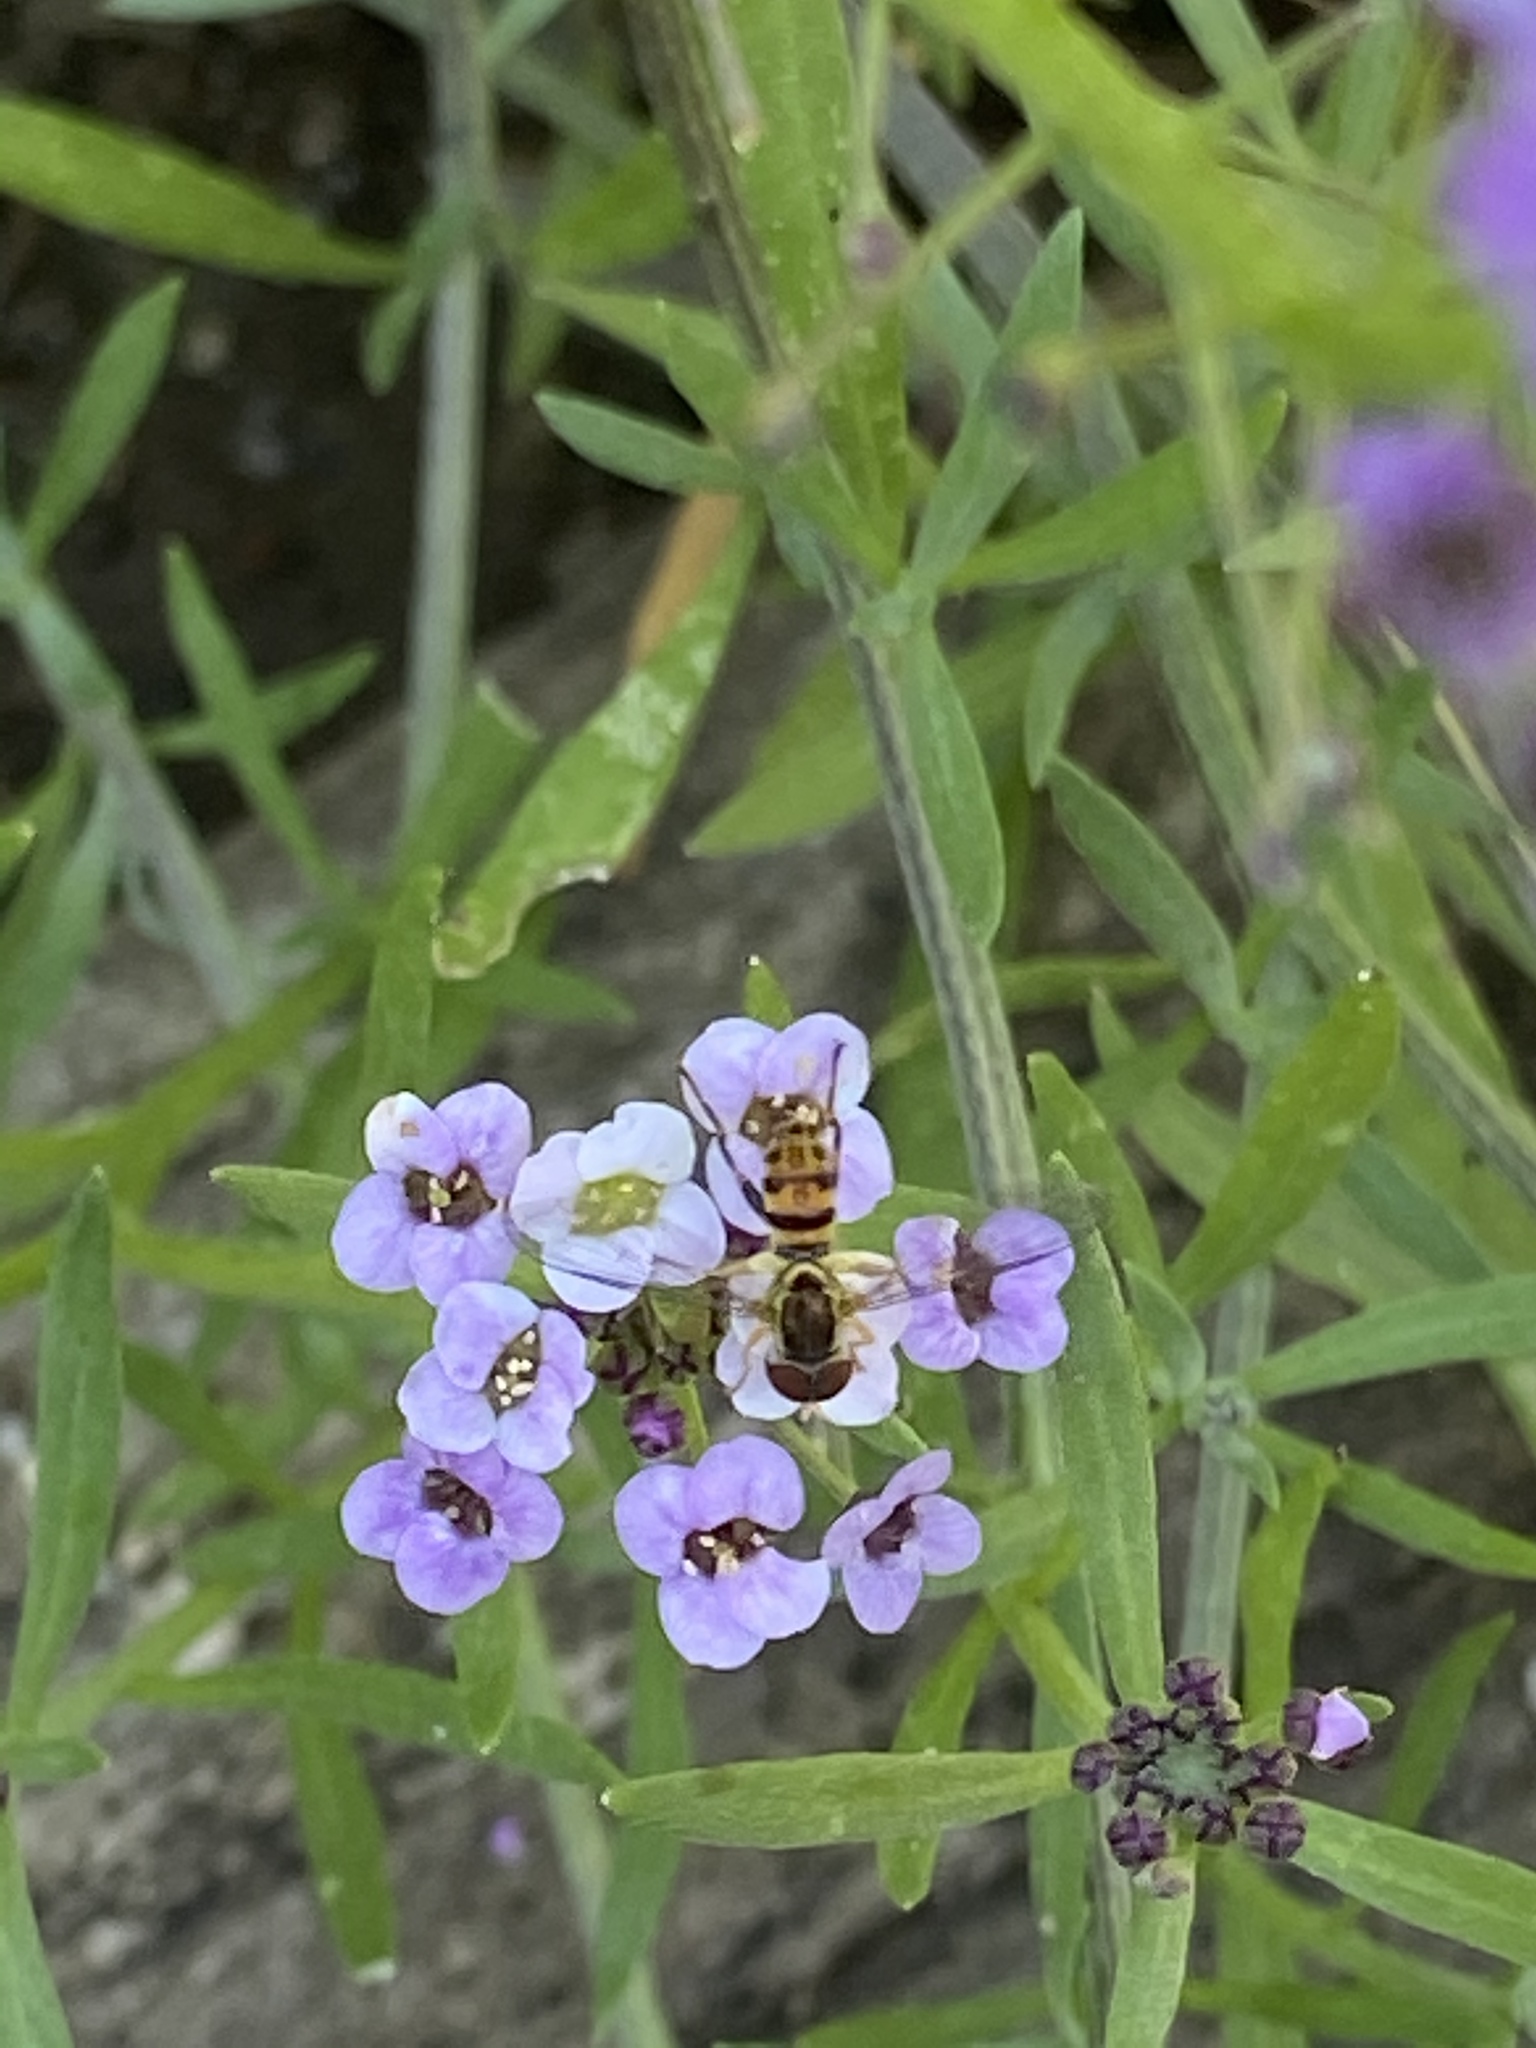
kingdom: Animalia
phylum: Arthropoda
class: Insecta
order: Diptera
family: Syrphidae
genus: Toxomerus
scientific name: Toxomerus geminatus
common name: Eastern calligrapher
